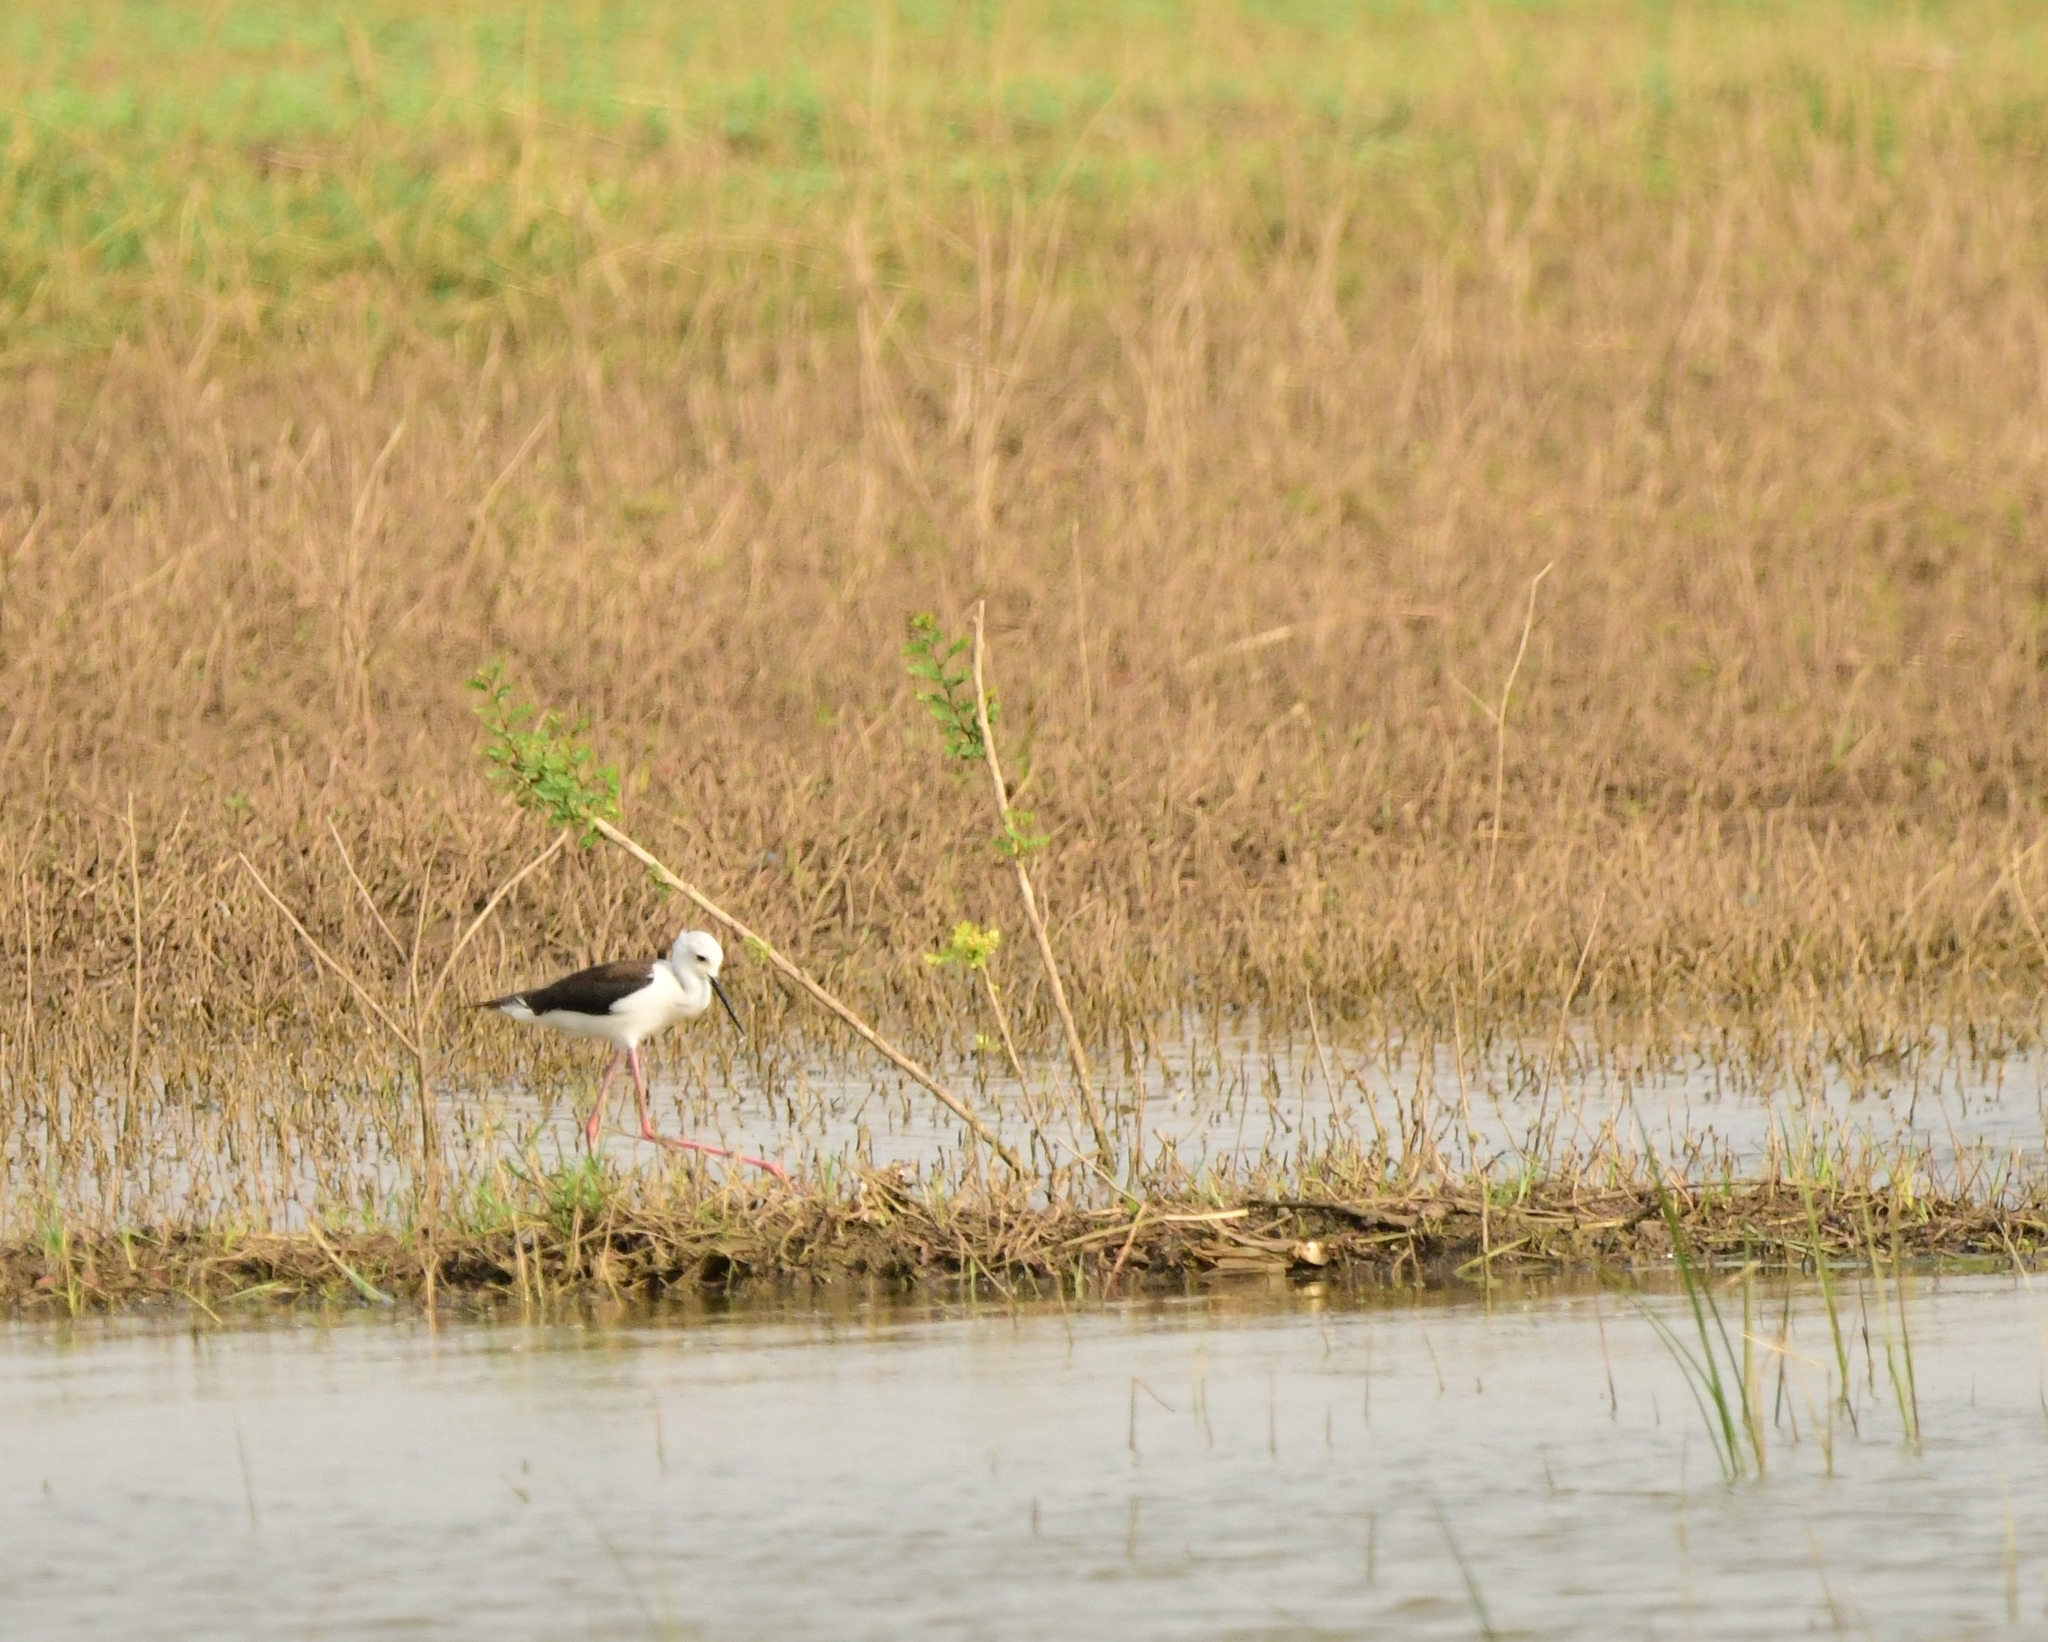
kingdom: Animalia
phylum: Chordata
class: Aves
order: Charadriiformes
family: Recurvirostridae
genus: Himantopus
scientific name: Himantopus himantopus
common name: Black-winged stilt
